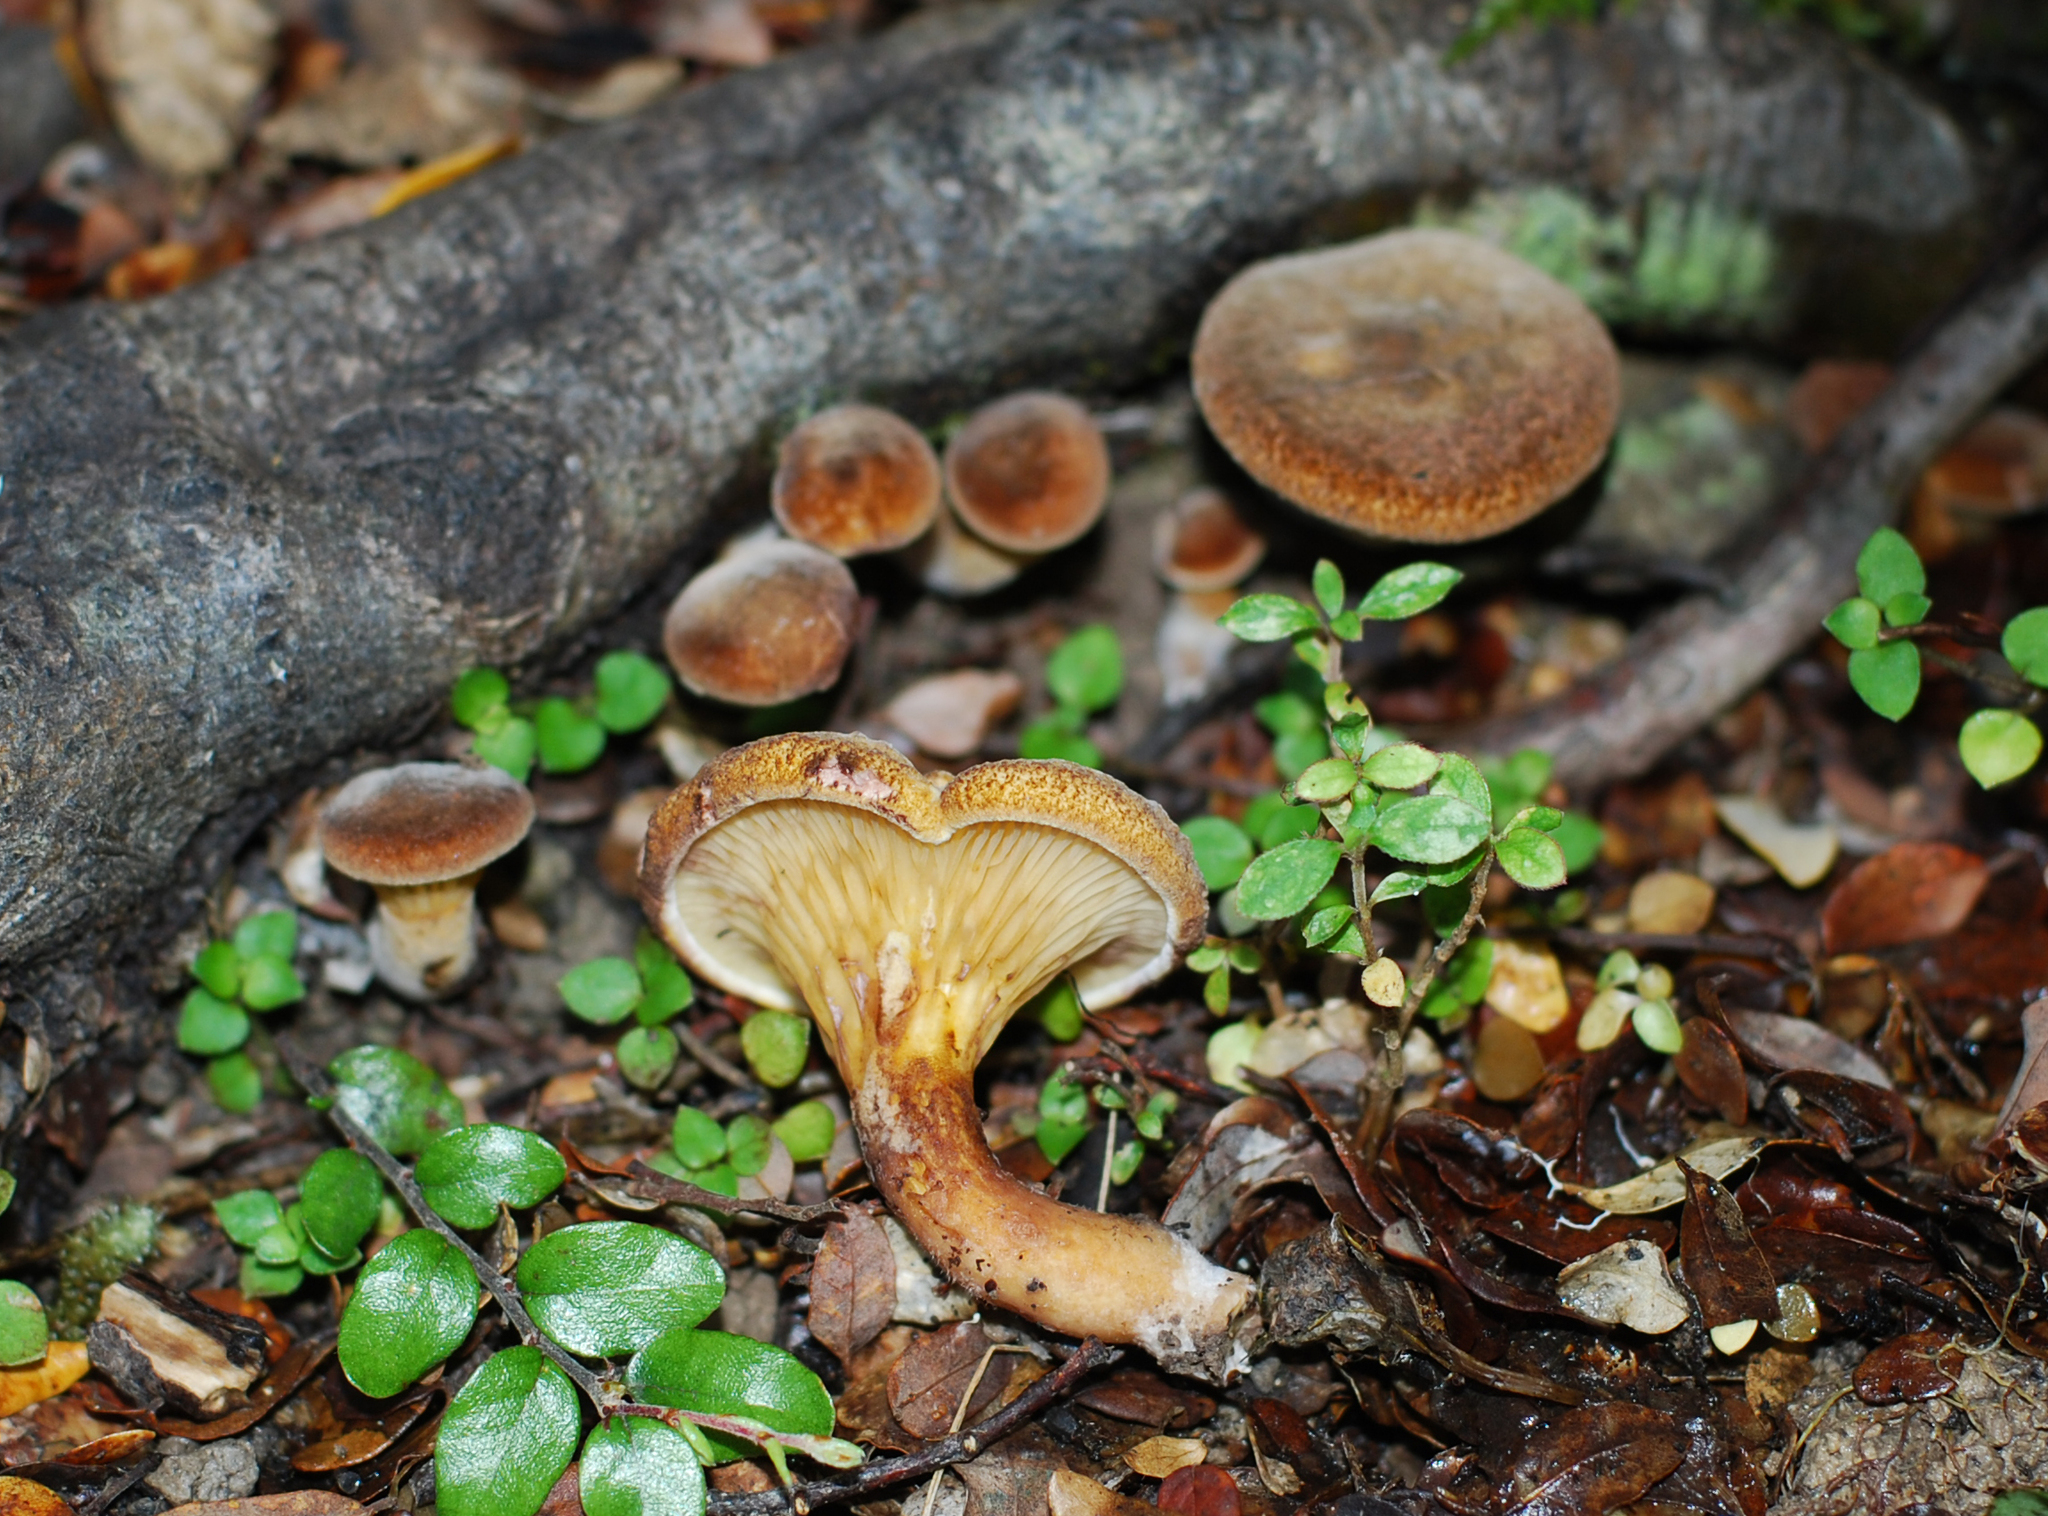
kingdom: Fungi
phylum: Basidiomycota
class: Agaricomycetes
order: Boletales
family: Serpulaceae
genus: Austropaxillus
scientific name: Austropaxillus squarrosus
